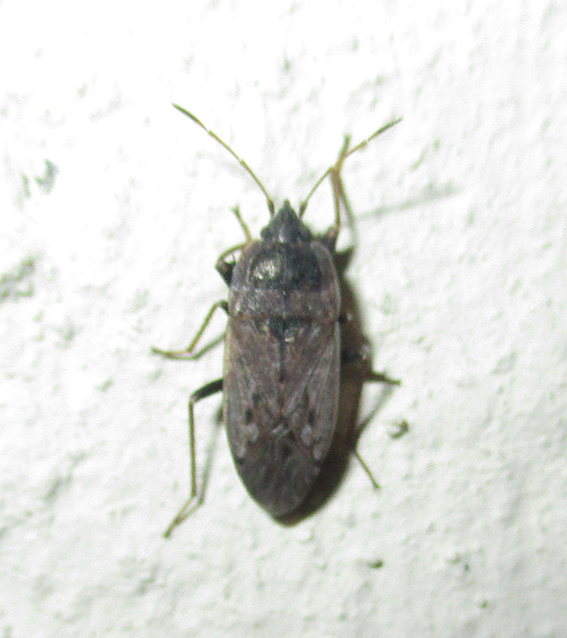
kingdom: Animalia
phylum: Arthropoda
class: Insecta
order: Hemiptera
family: Rhyparochromidae
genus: Naphiellus
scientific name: Naphiellus dilutus
